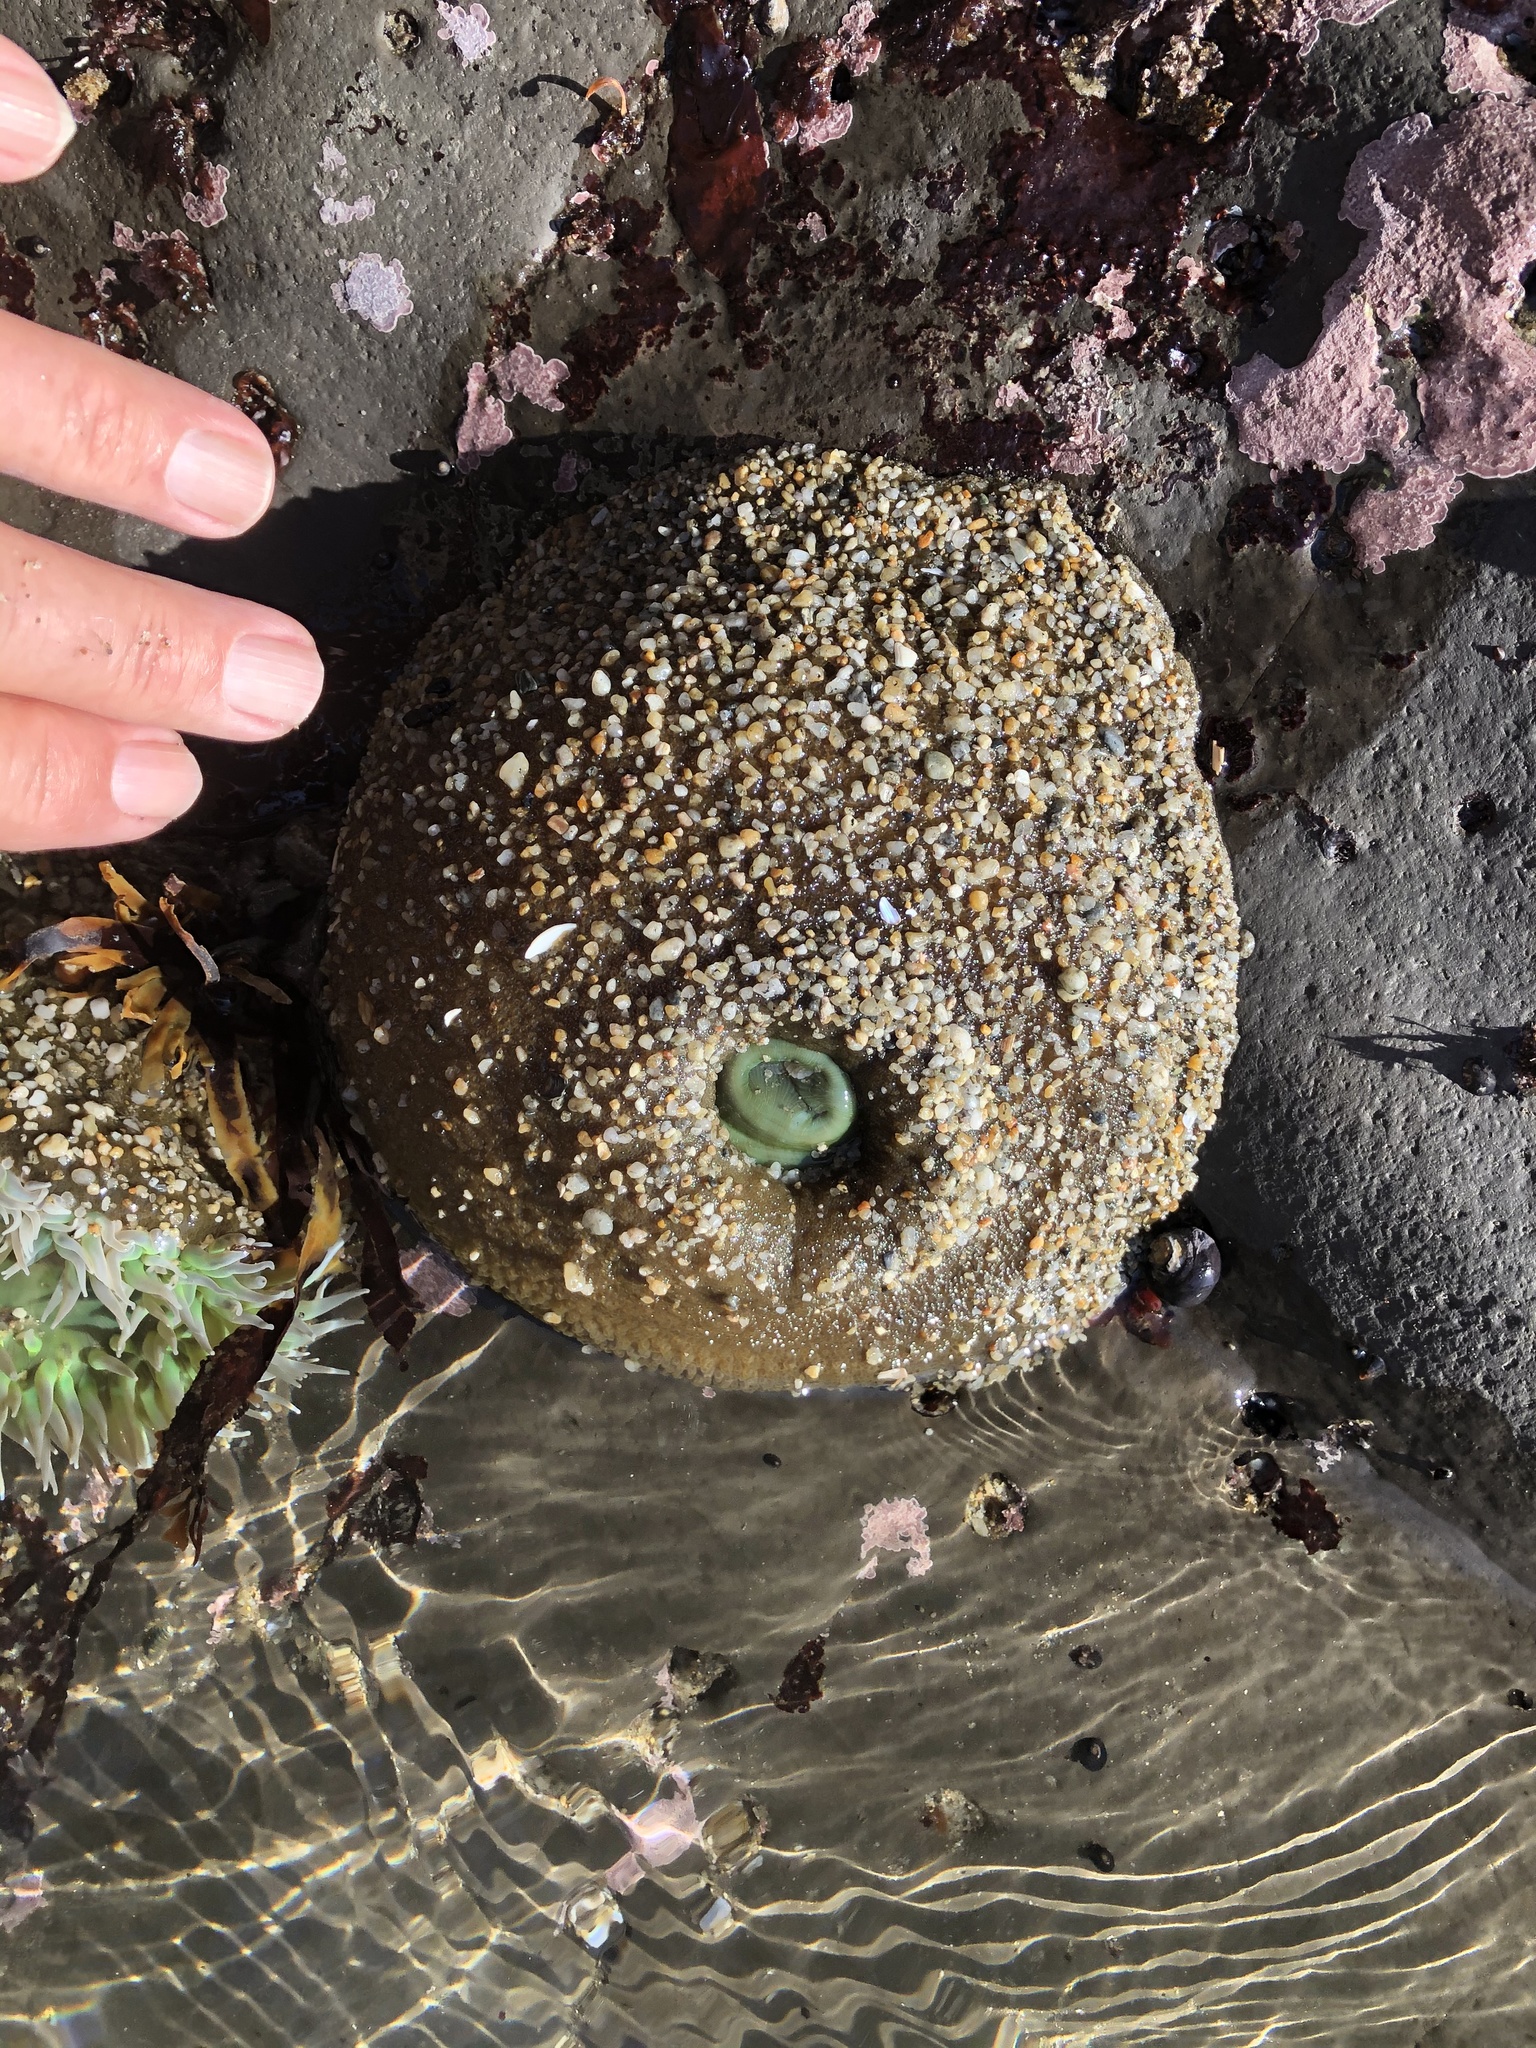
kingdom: Animalia
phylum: Cnidaria
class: Anthozoa
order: Actiniaria
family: Actiniidae
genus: Anthopleura
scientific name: Anthopleura xanthogrammica
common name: Giant green anemone
